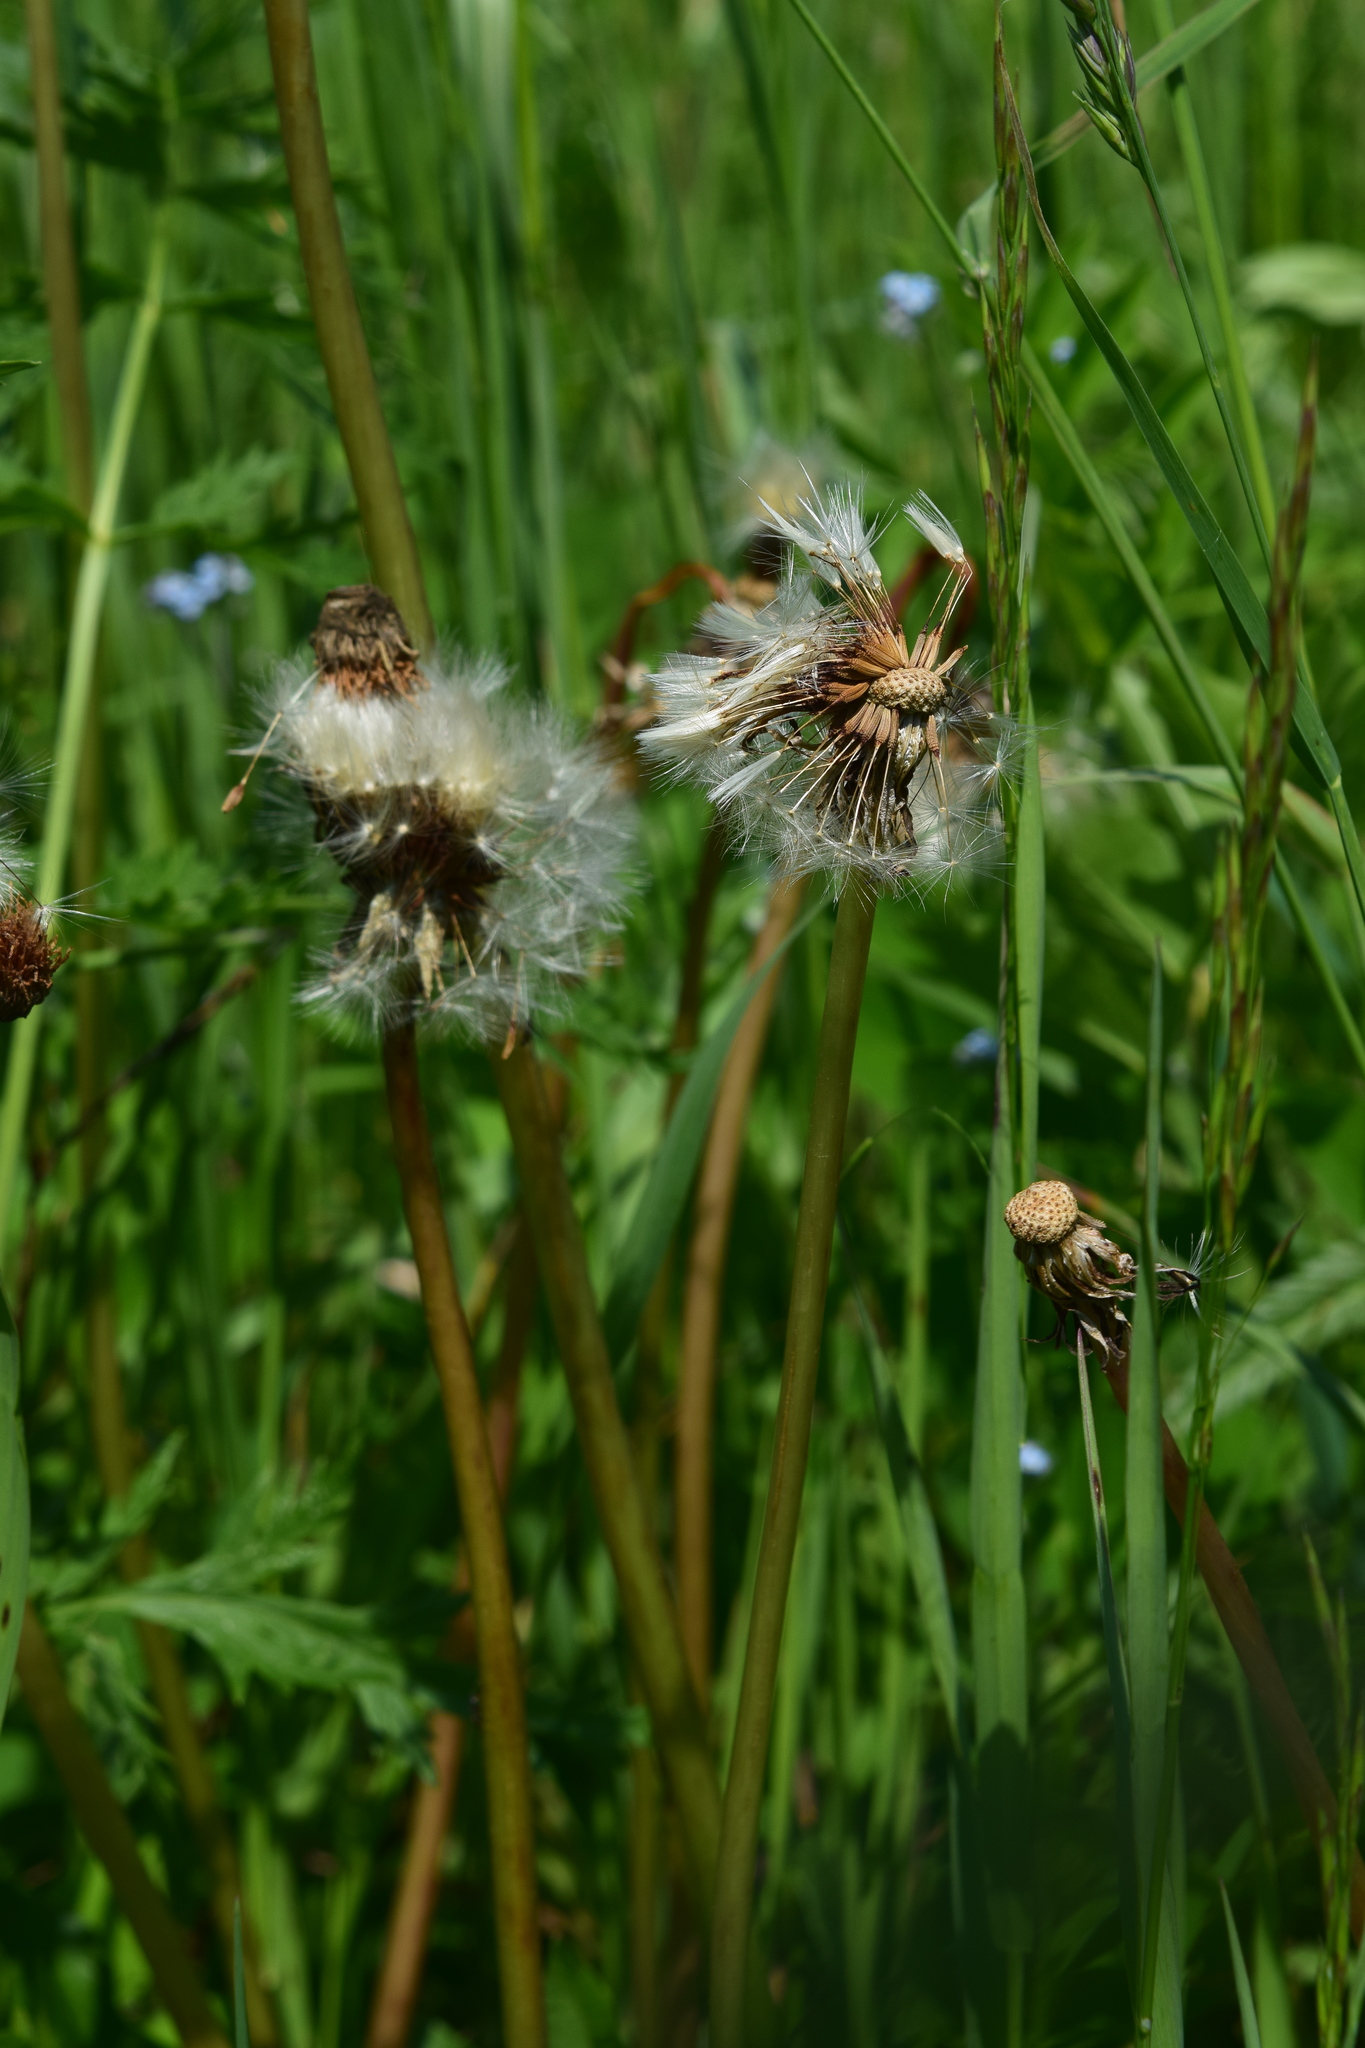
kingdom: Plantae
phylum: Tracheophyta
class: Magnoliopsida
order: Asterales
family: Asteraceae
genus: Taraxacum
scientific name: Taraxacum officinale
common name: Common dandelion
